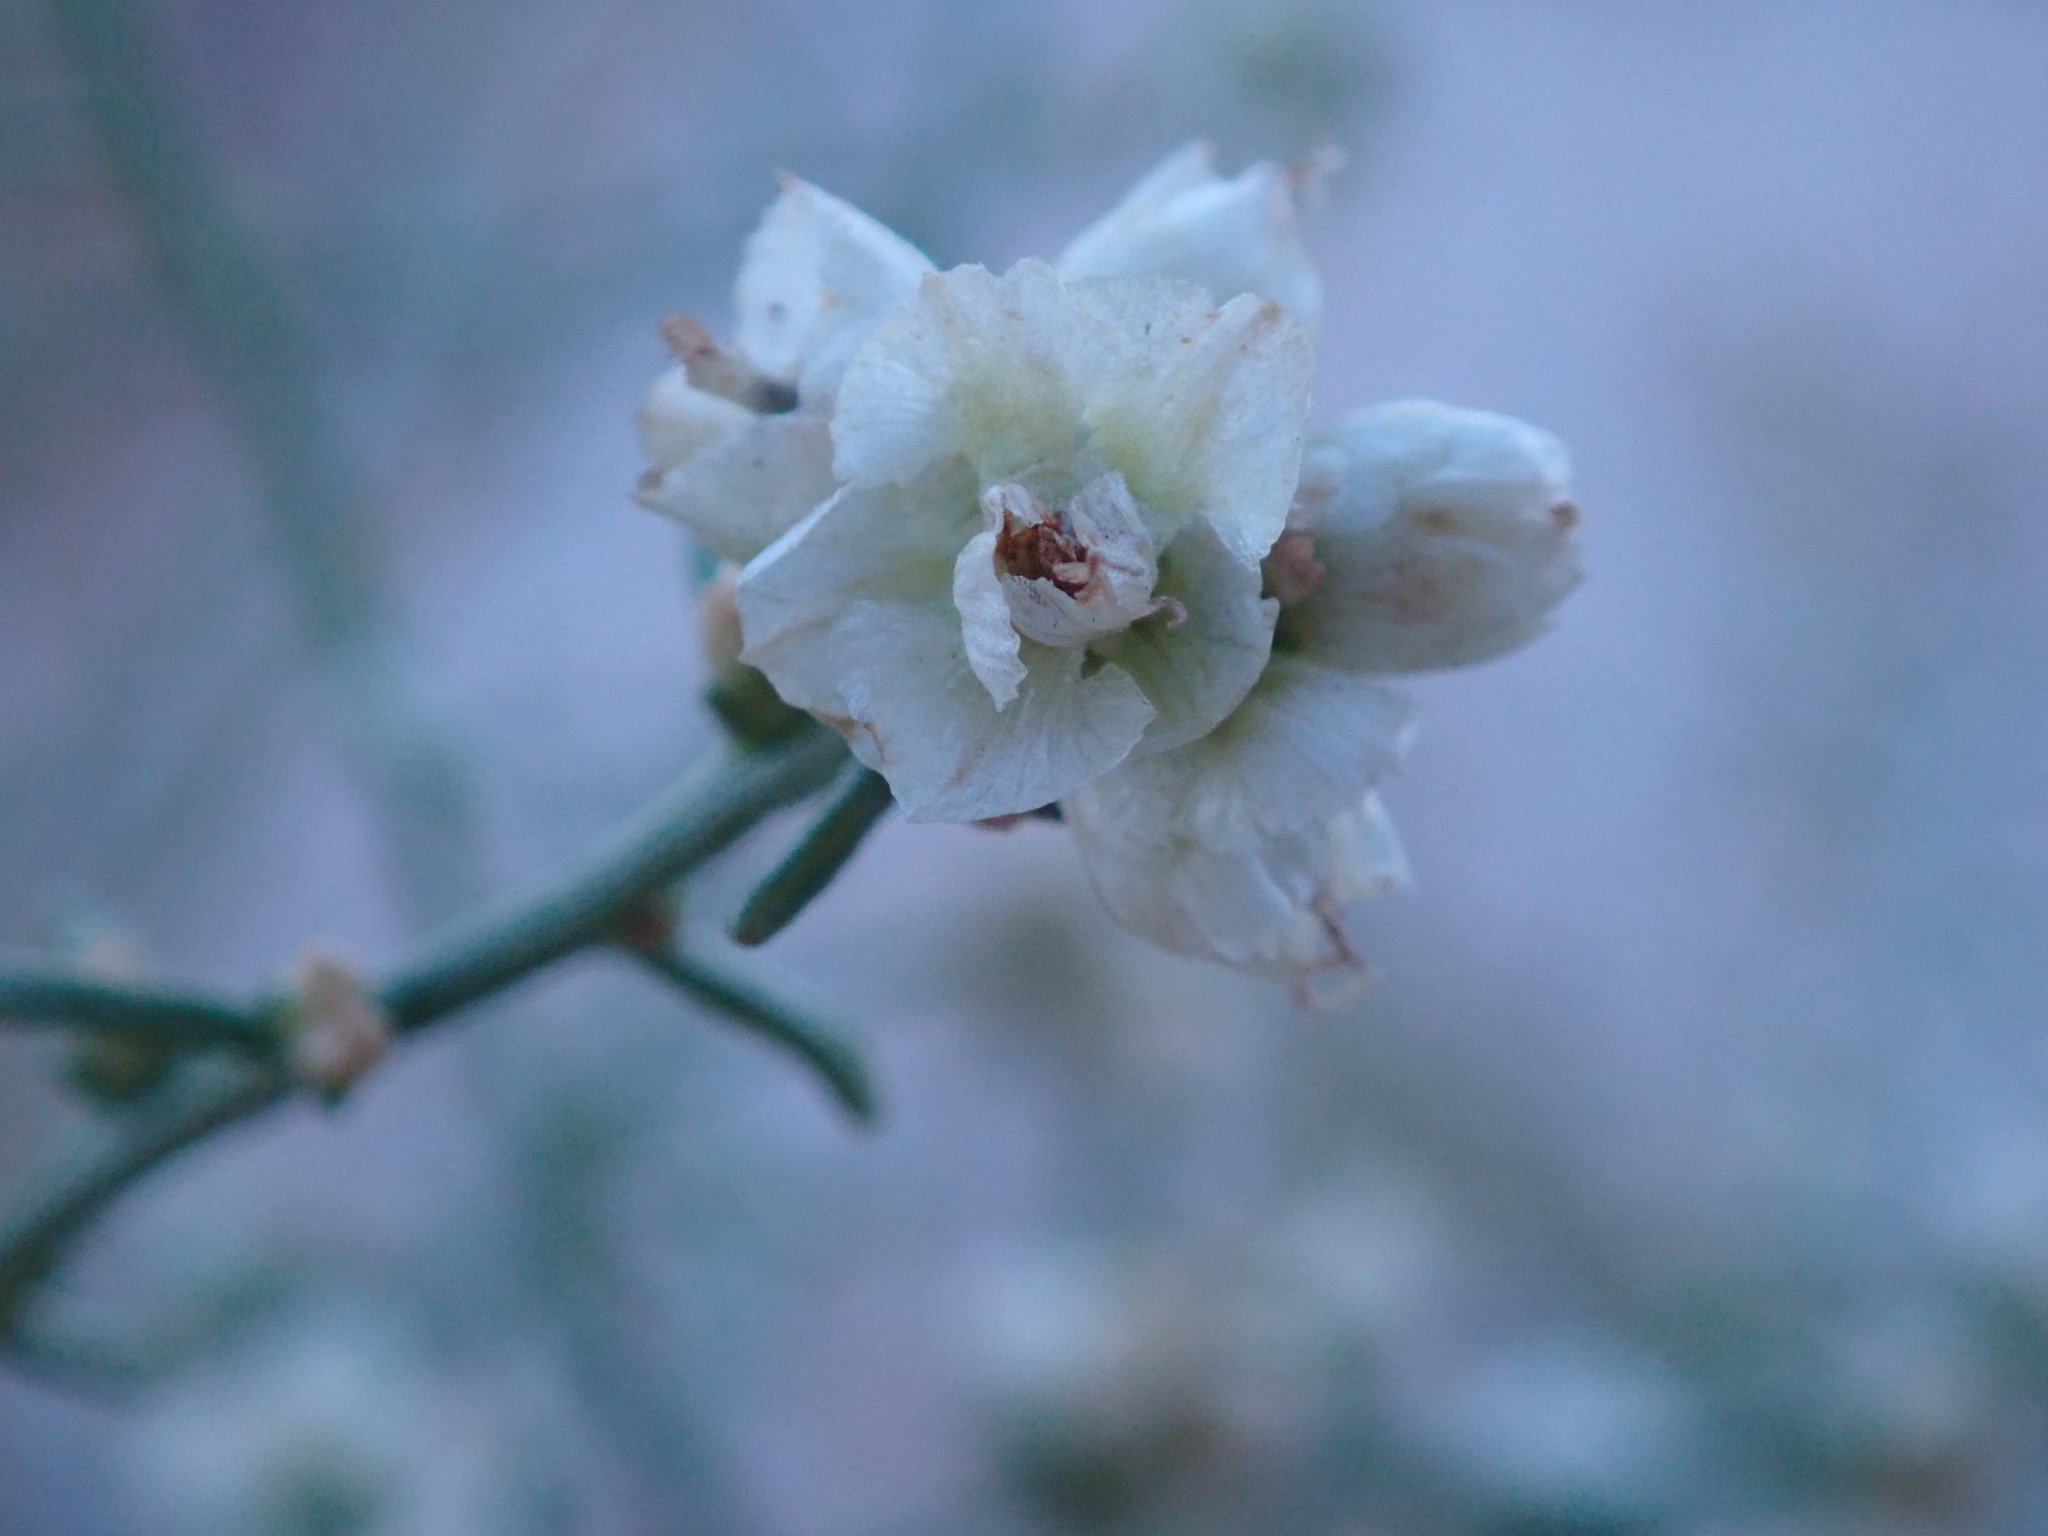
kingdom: Plantae
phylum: Tracheophyta
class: Magnoliopsida
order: Asterales
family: Asteraceae
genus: Ambrosia
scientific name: Ambrosia salsola
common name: Burrobrush
